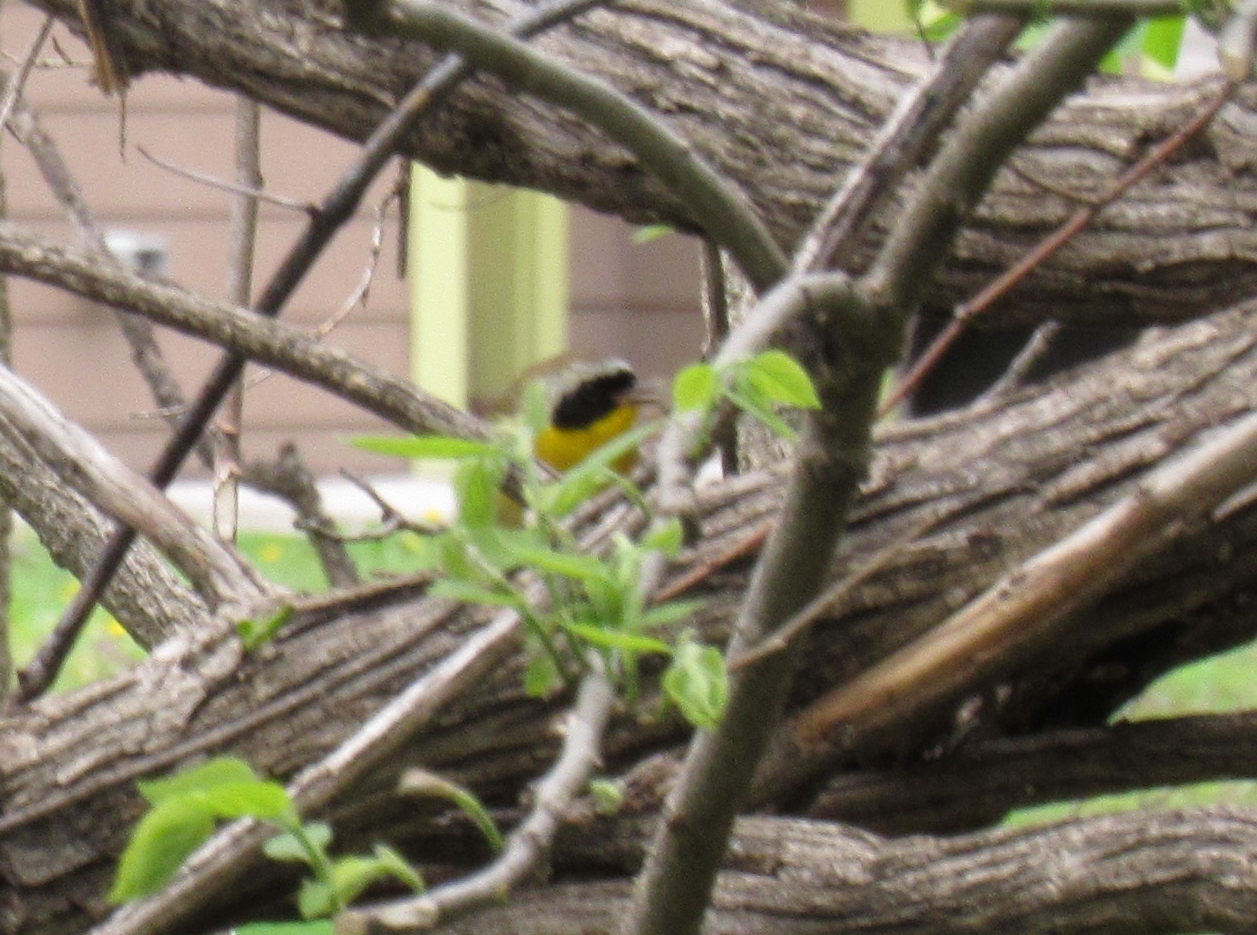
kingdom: Animalia
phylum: Chordata
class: Aves
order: Passeriformes
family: Parulidae
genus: Geothlypis
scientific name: Geothlypis trichas
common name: Common yellowthroat
